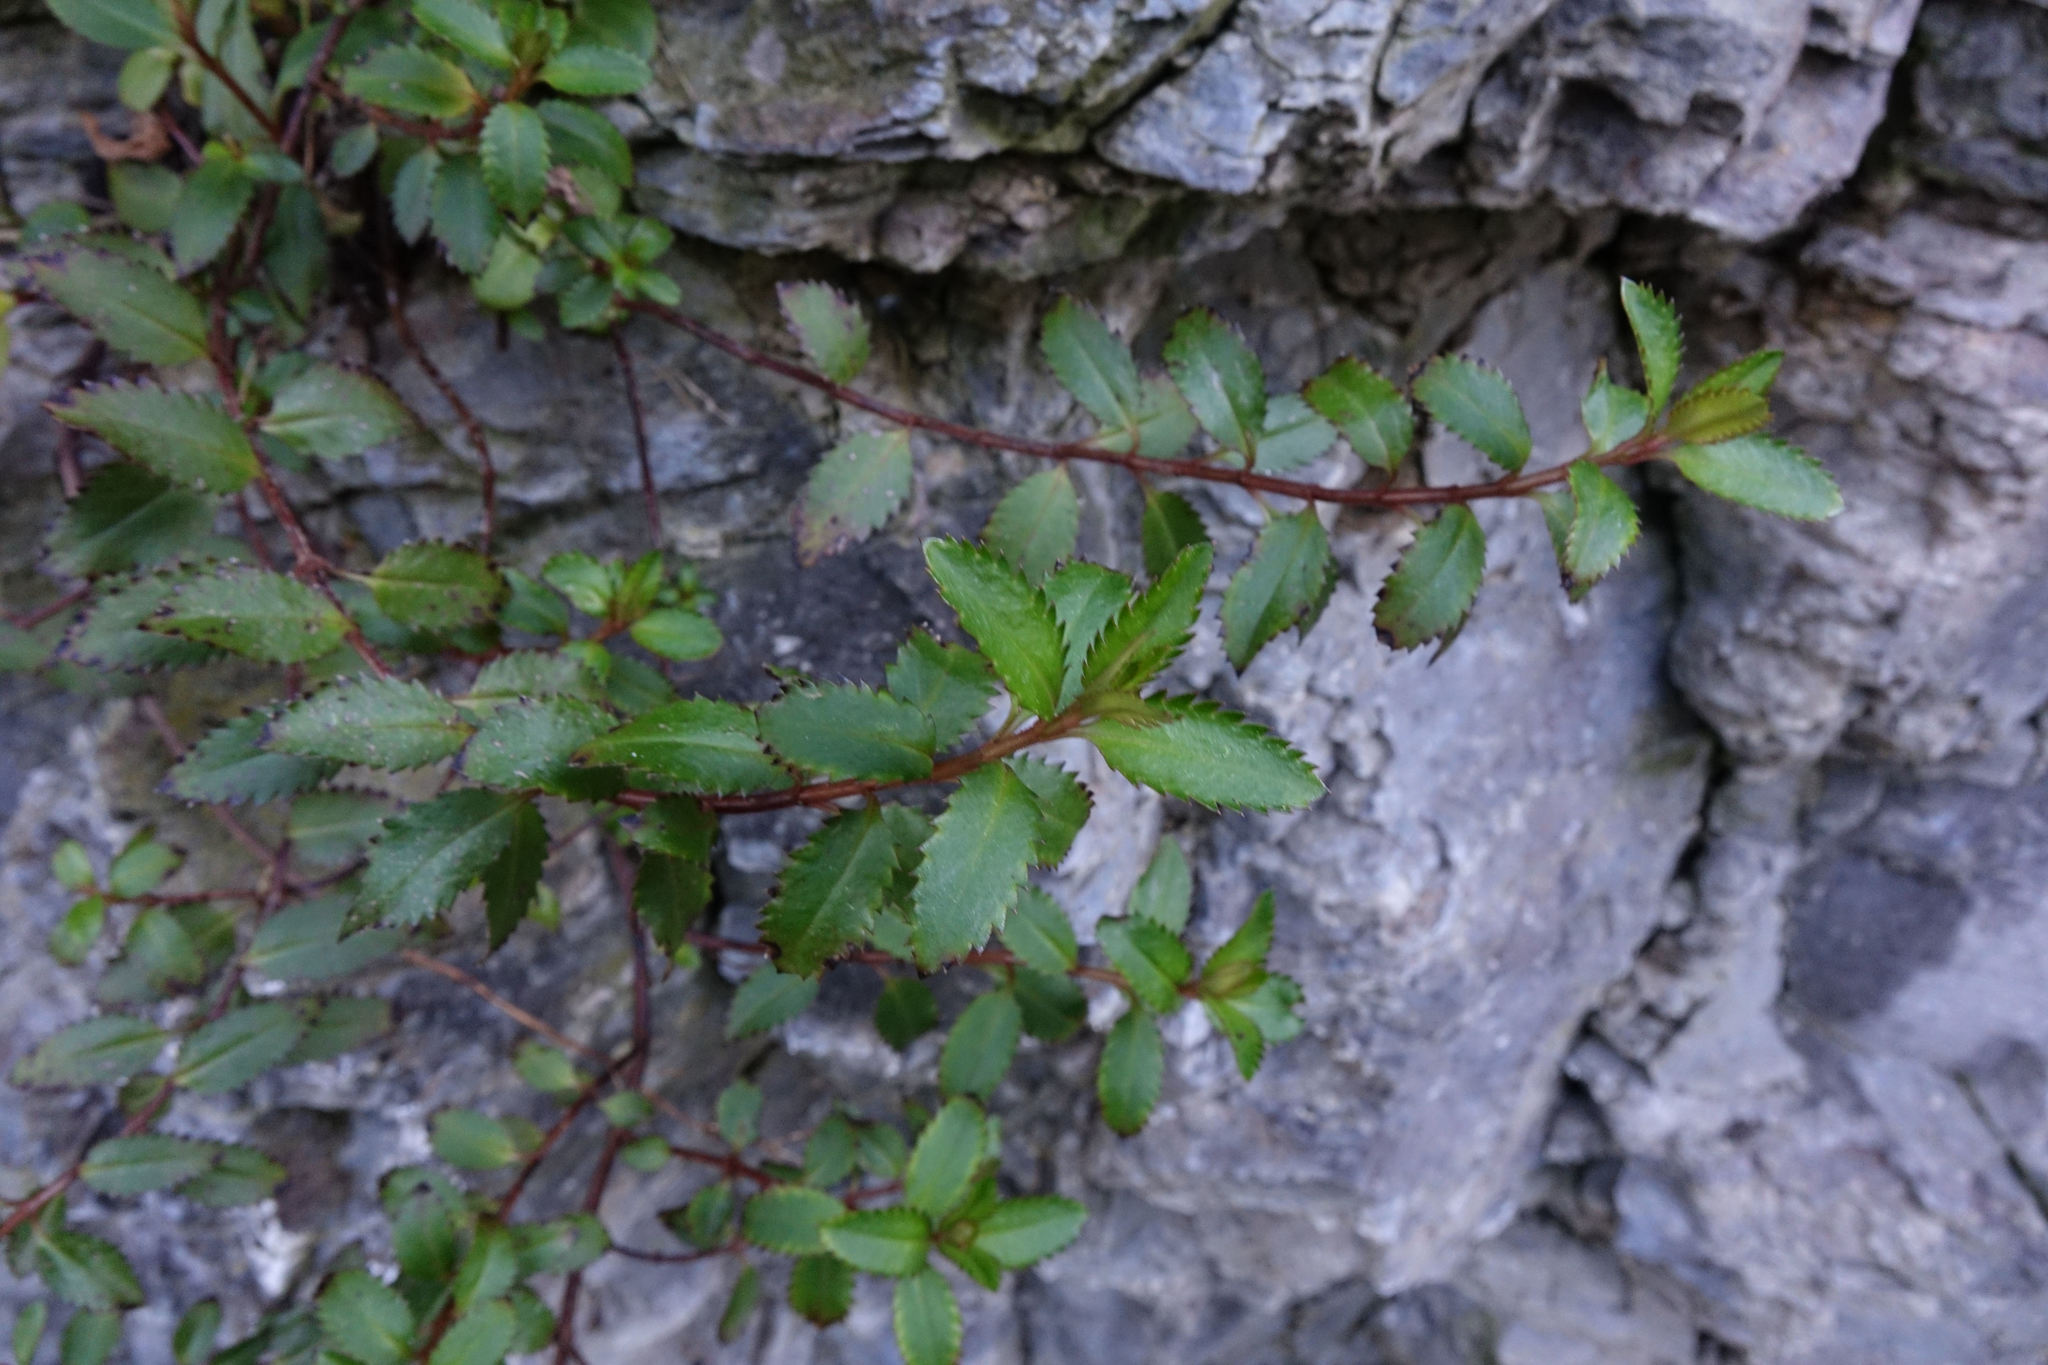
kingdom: Plantae
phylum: Tracheophyta
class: Magnoliopsida
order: Saxifragales
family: Haloragaceae
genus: Haloragis
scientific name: Haloragis erecta
